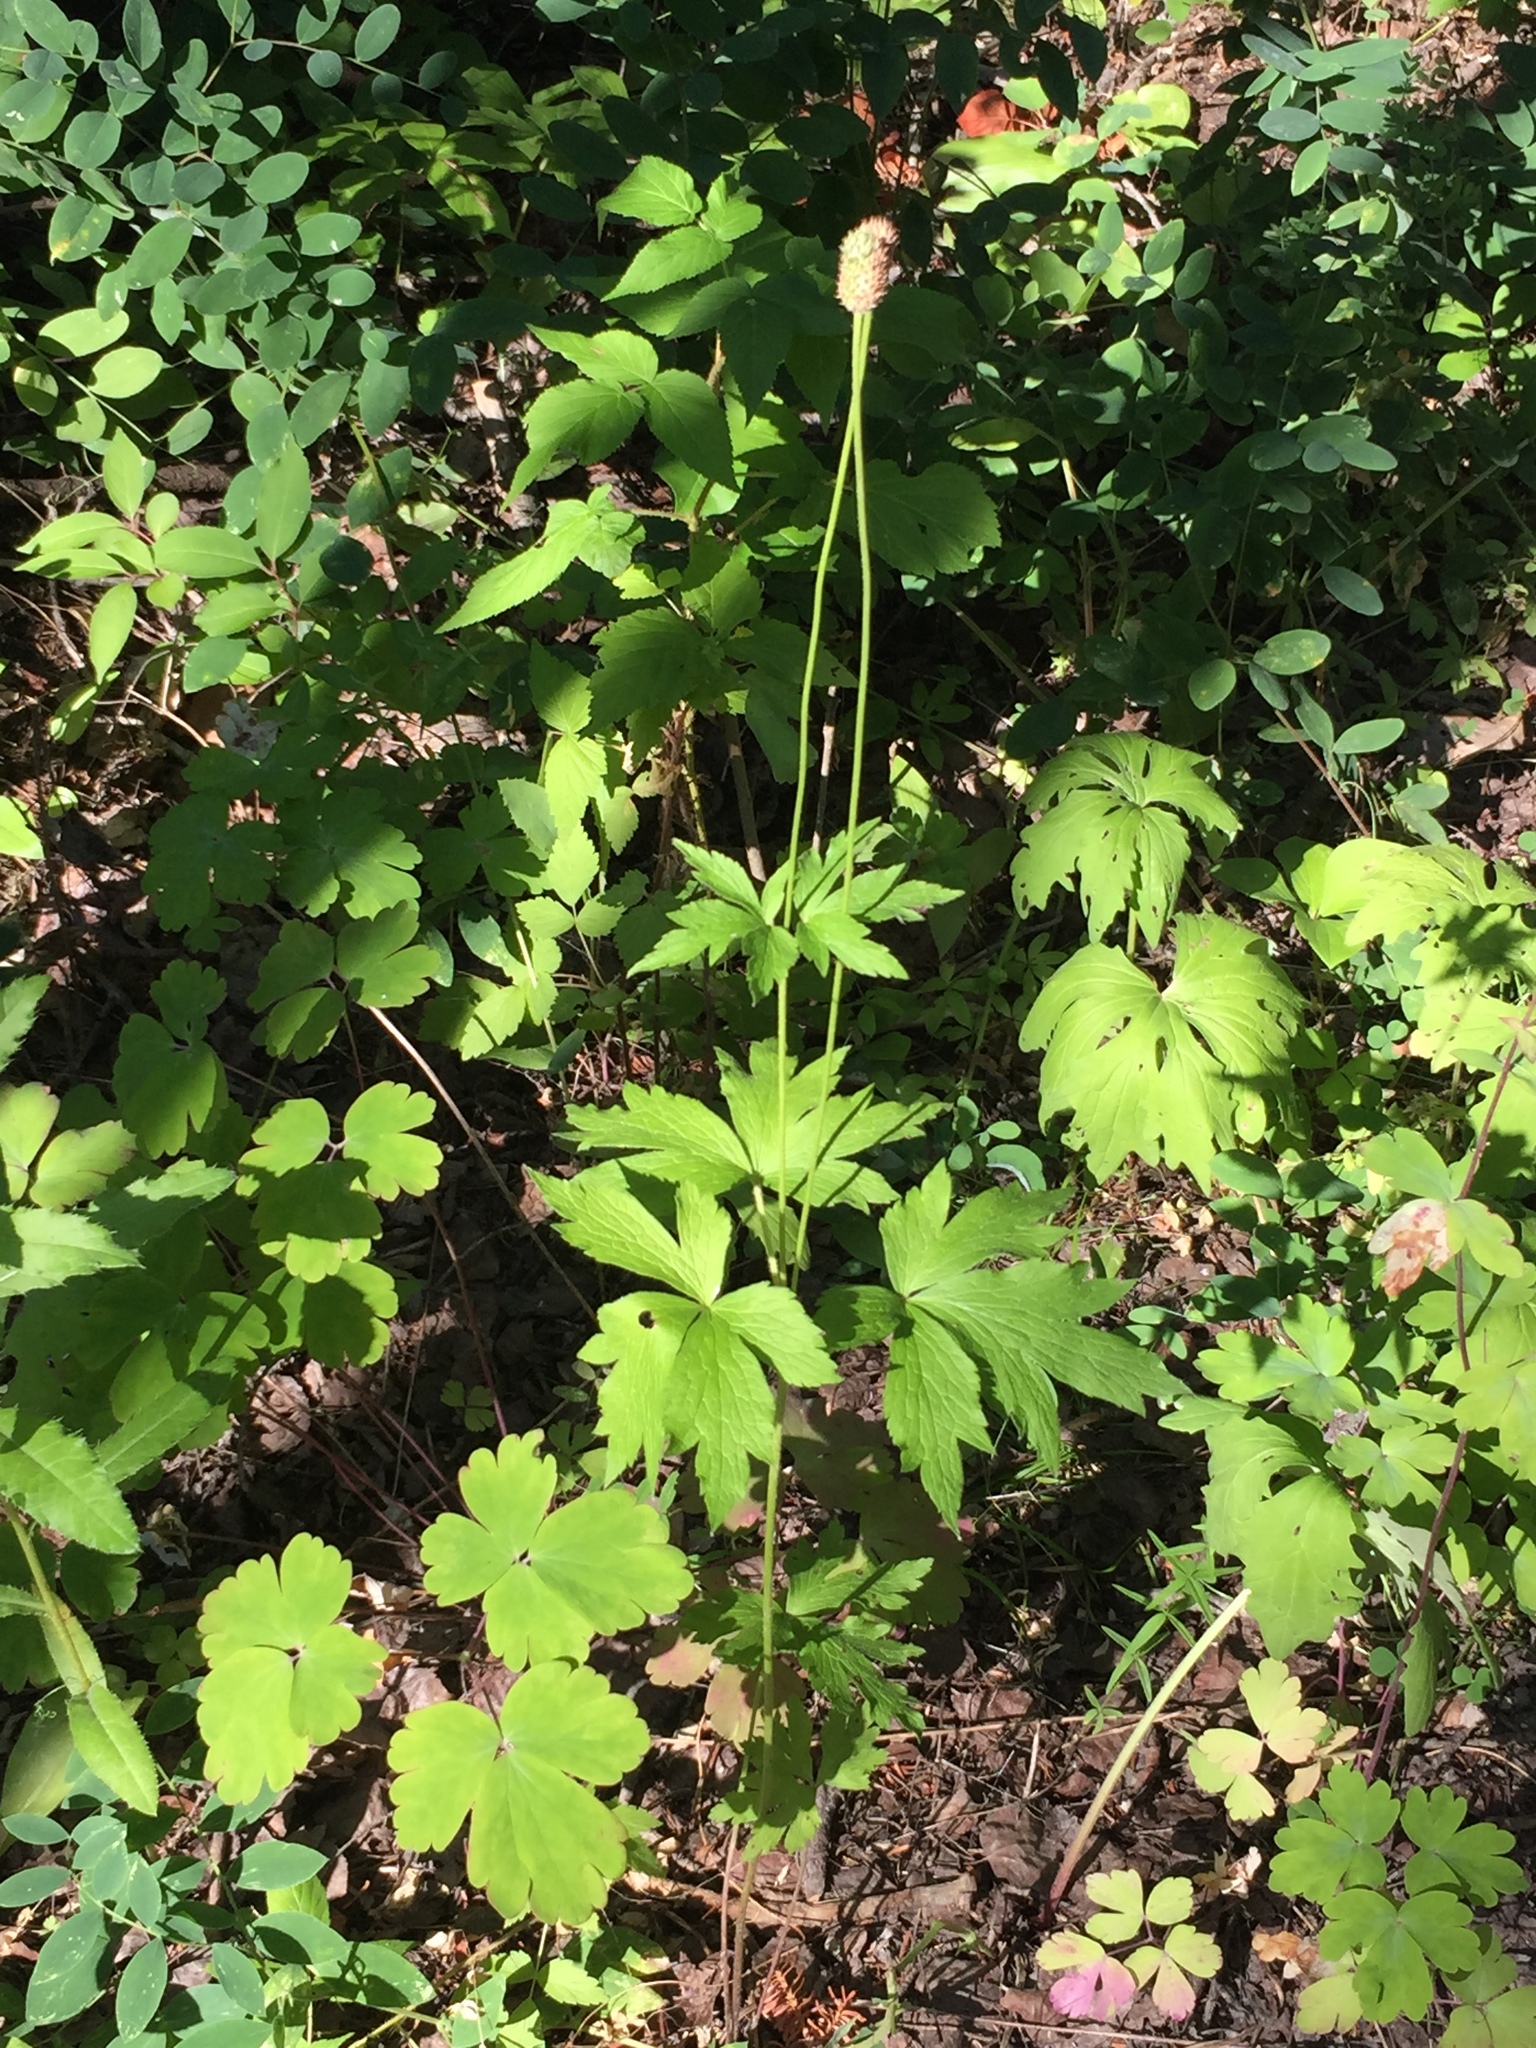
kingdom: Plantae
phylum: Tracheophyta
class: Magnoliopsida
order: Ranunculales
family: Ranunculaceae
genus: Anemone
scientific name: Anemone virginiana
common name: Tall anemone
